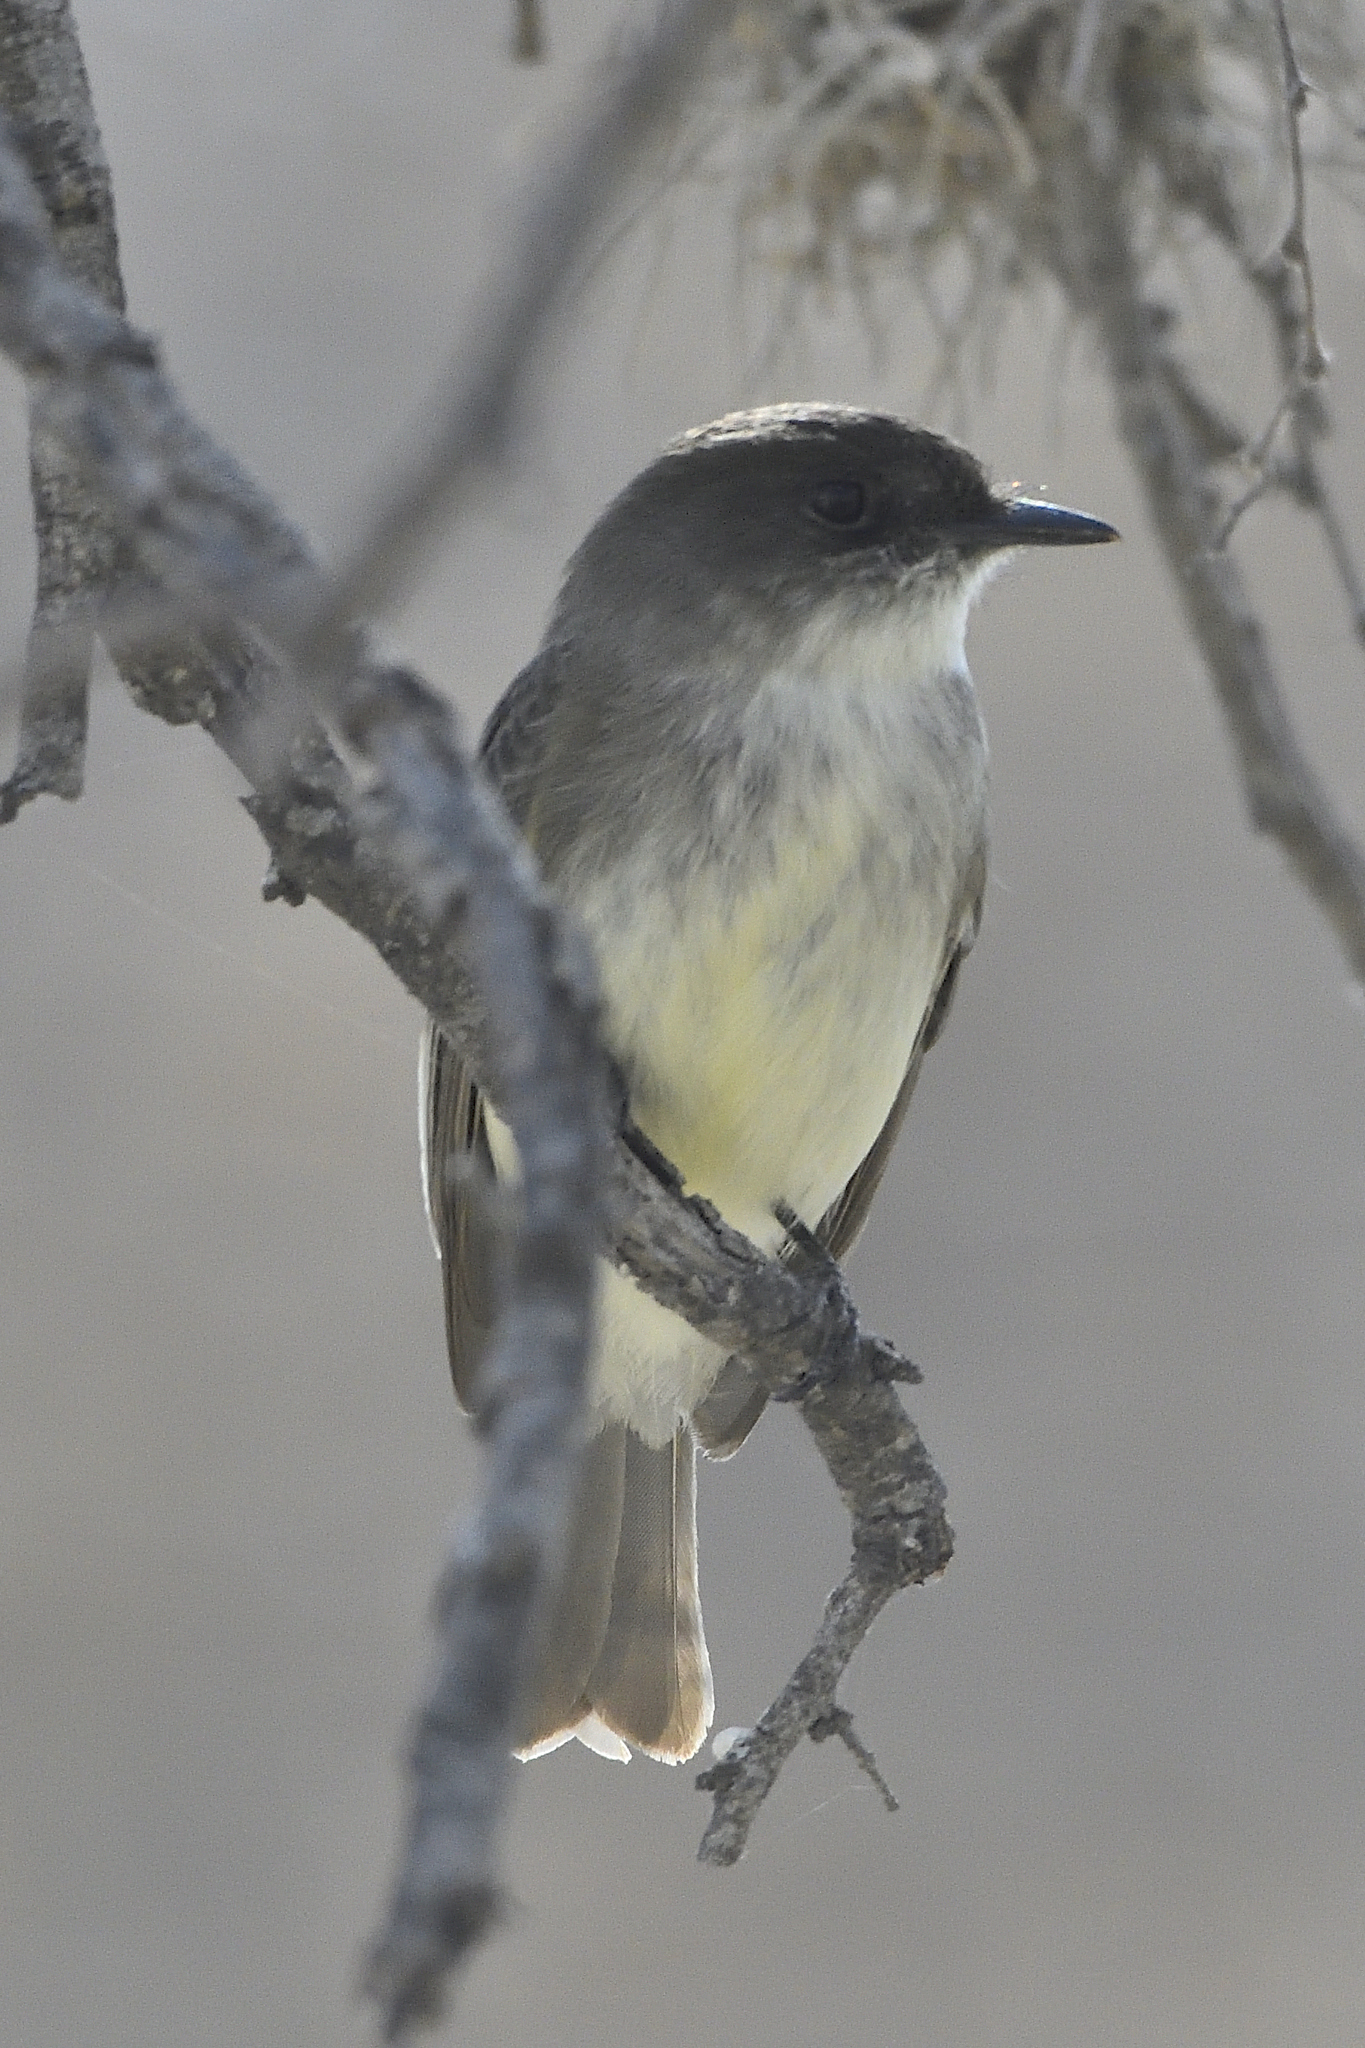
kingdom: Animalia
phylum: Chordata
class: Aves
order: Passeriformes
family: Tyrannidae
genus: Sayornis
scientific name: Sayornis phoebe
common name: Eastern phoebe
